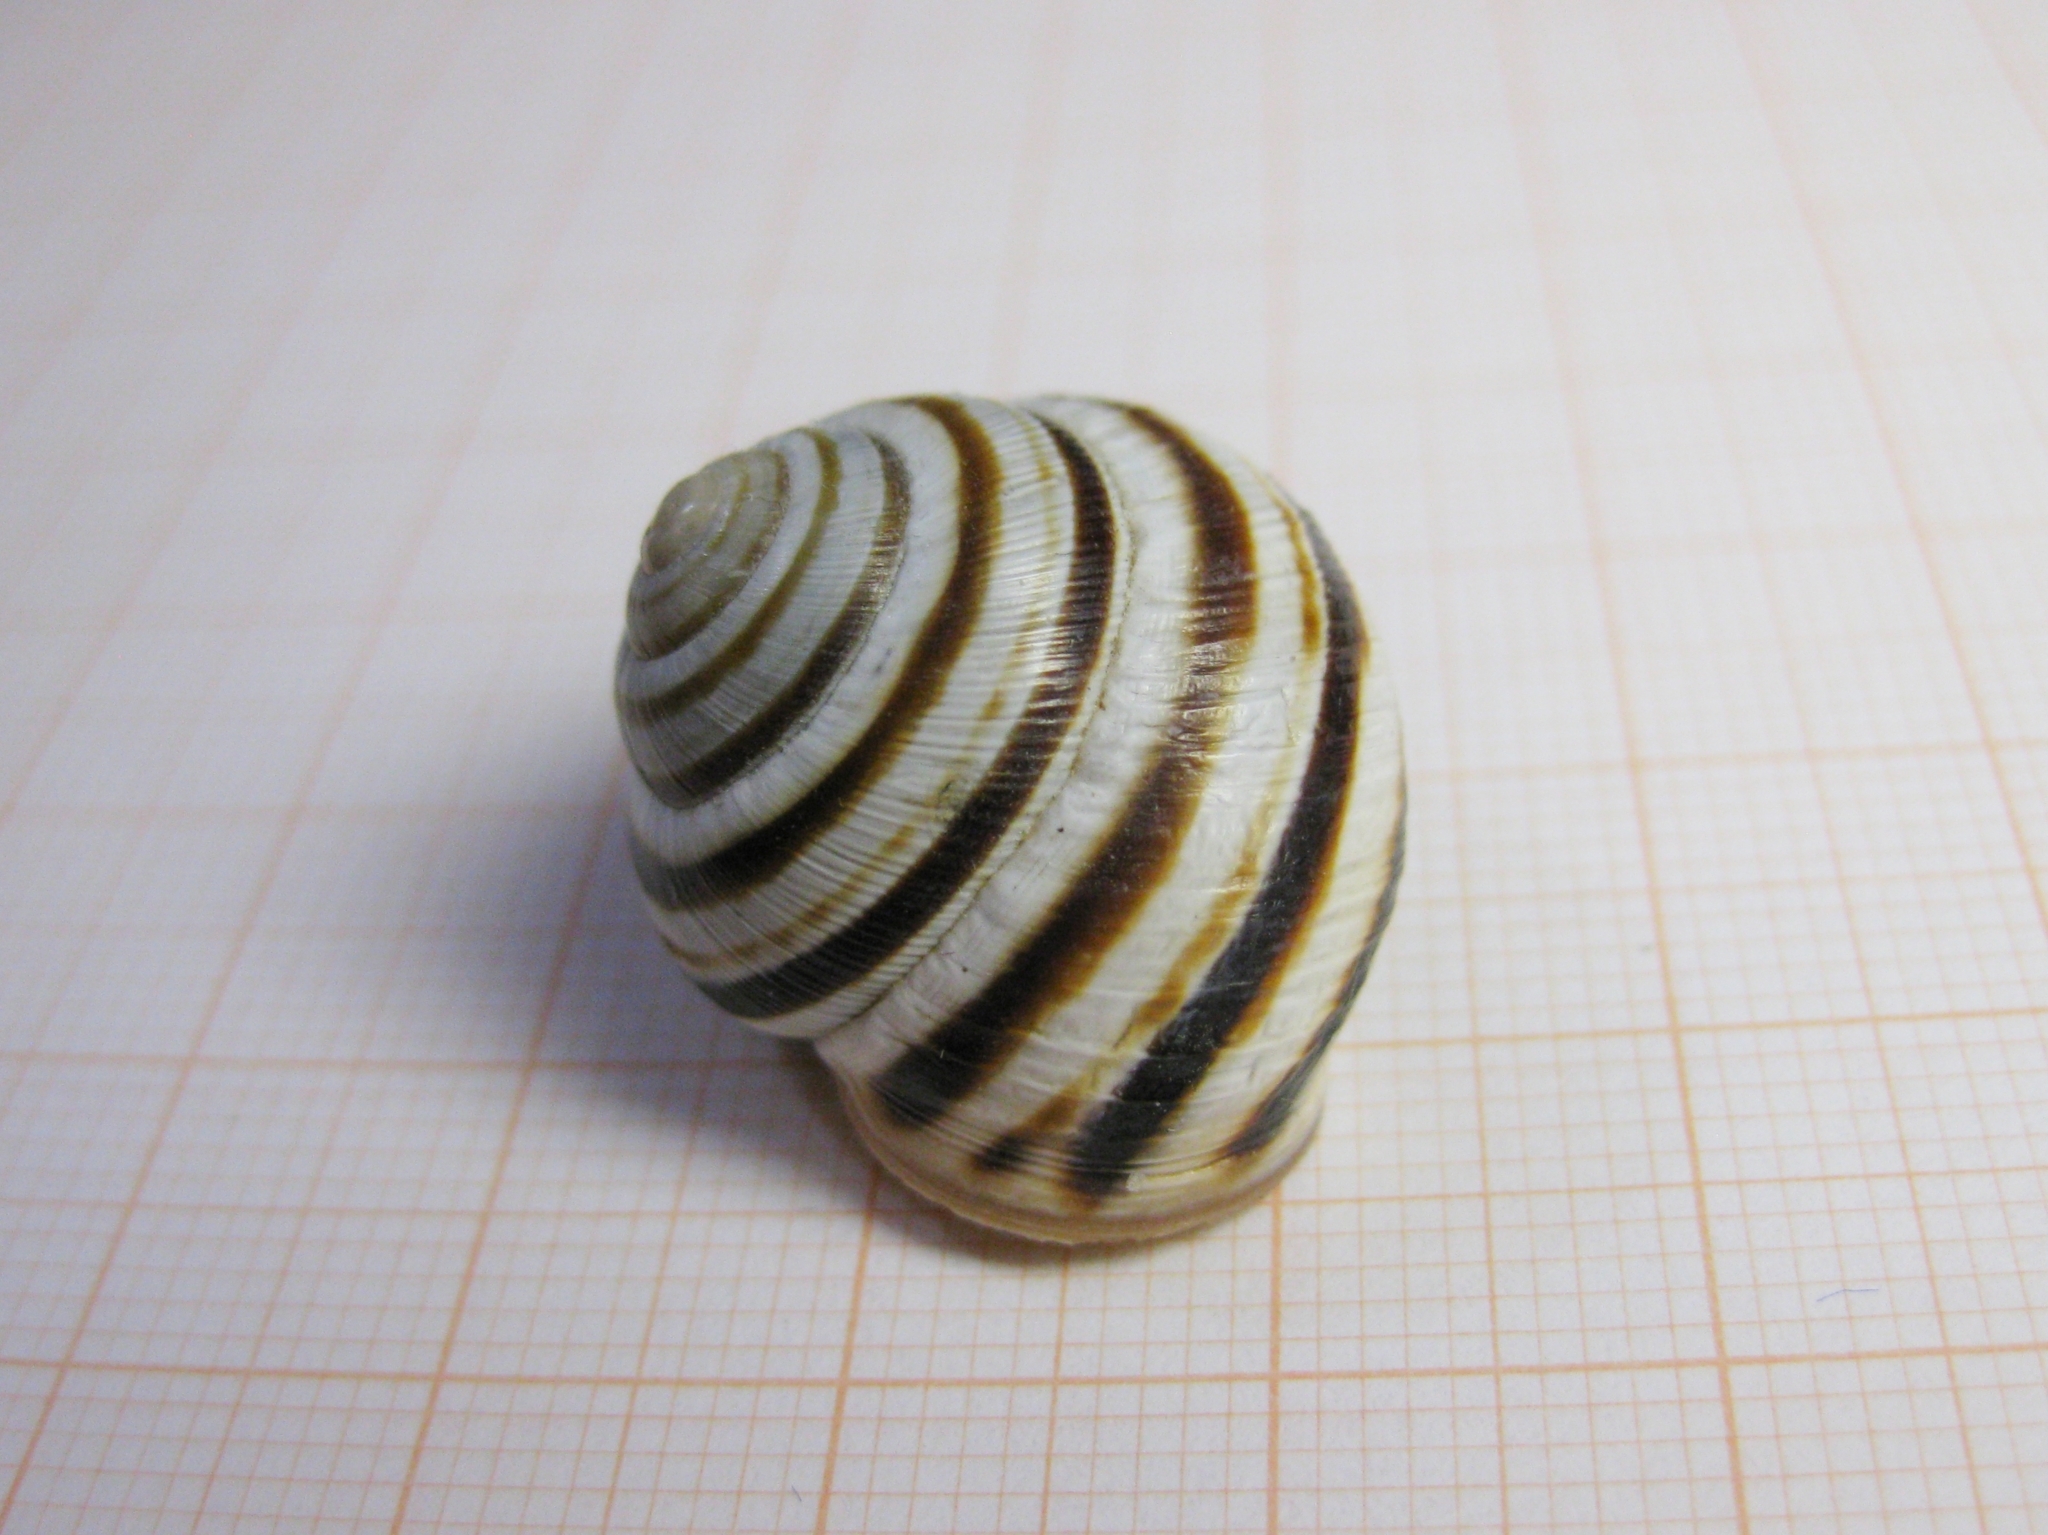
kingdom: Animalia
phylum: Mollusca
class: Gastropoda
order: Stylommatophora
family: Helicidae
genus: Caucasotachea
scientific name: Caucasotachea vindobonensis
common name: European helicid land snail
